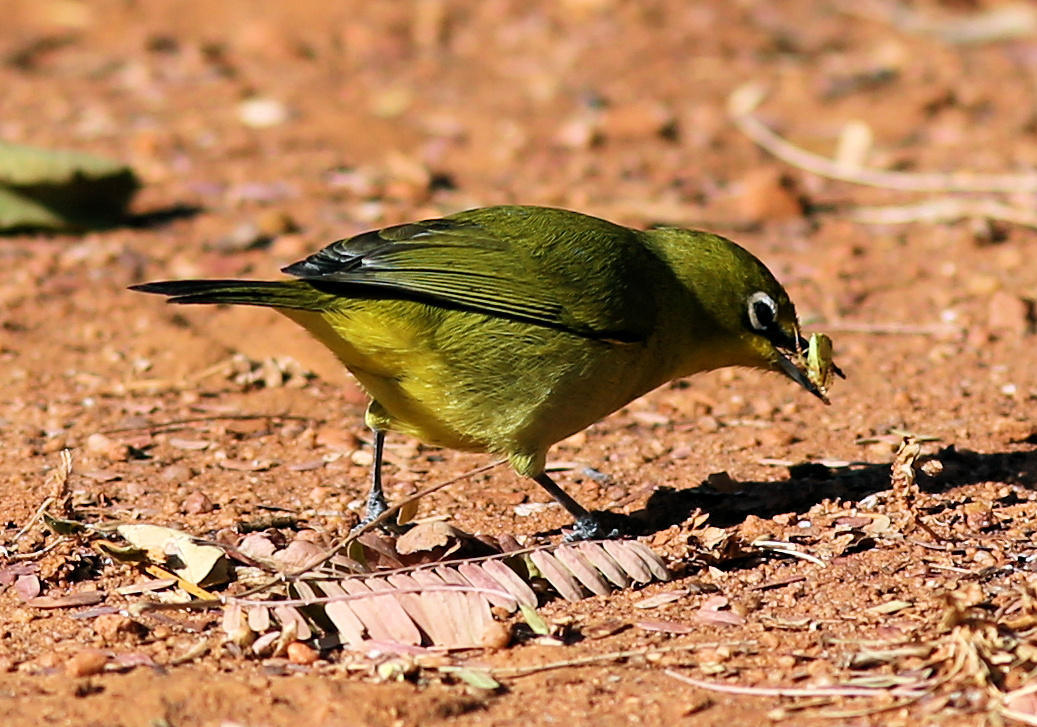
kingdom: Animalia
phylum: Chordata
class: Aves
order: Passeriformes
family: Zosteropidae
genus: Zosterops
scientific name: Zosterops virens
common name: Cape white-eye
